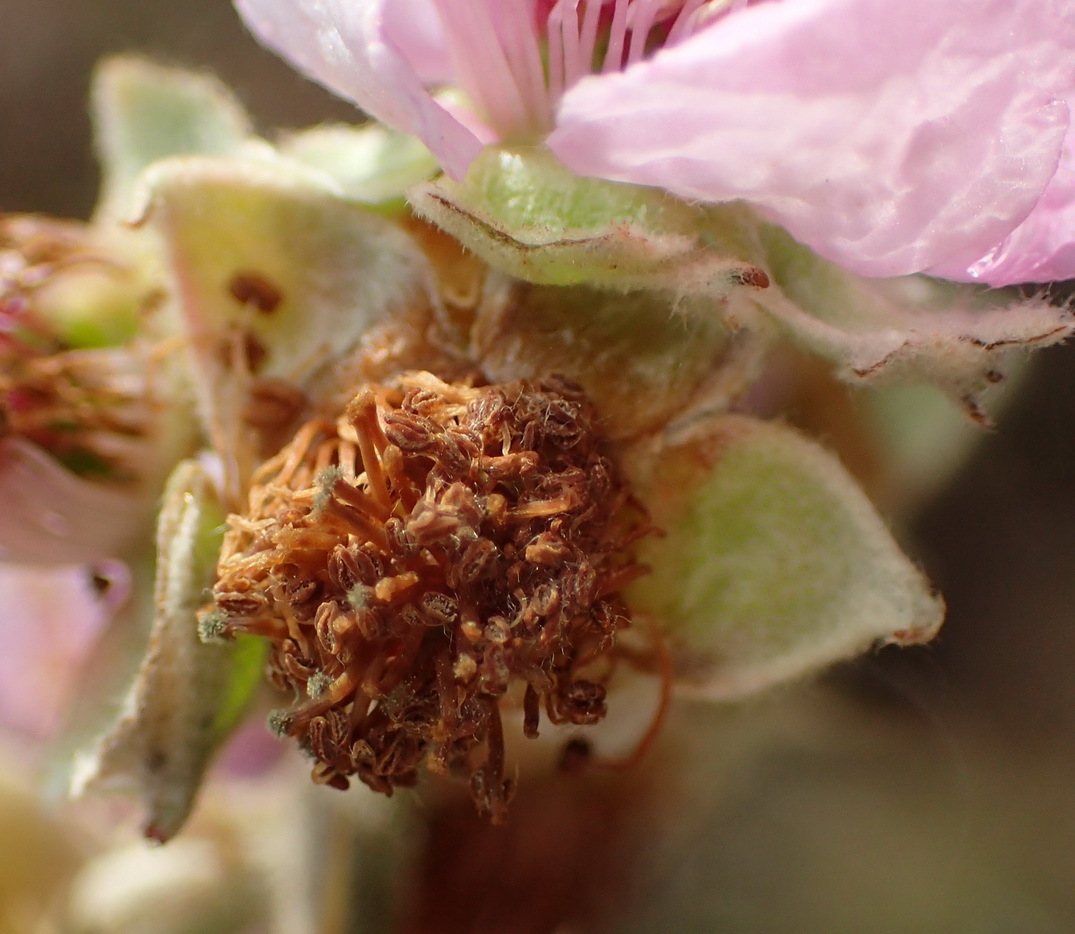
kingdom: Plantae
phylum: Tracheophyta
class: Magnoliopsida
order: Rosales
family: Rosaceae
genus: Rubus
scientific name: Rubus rigidus
